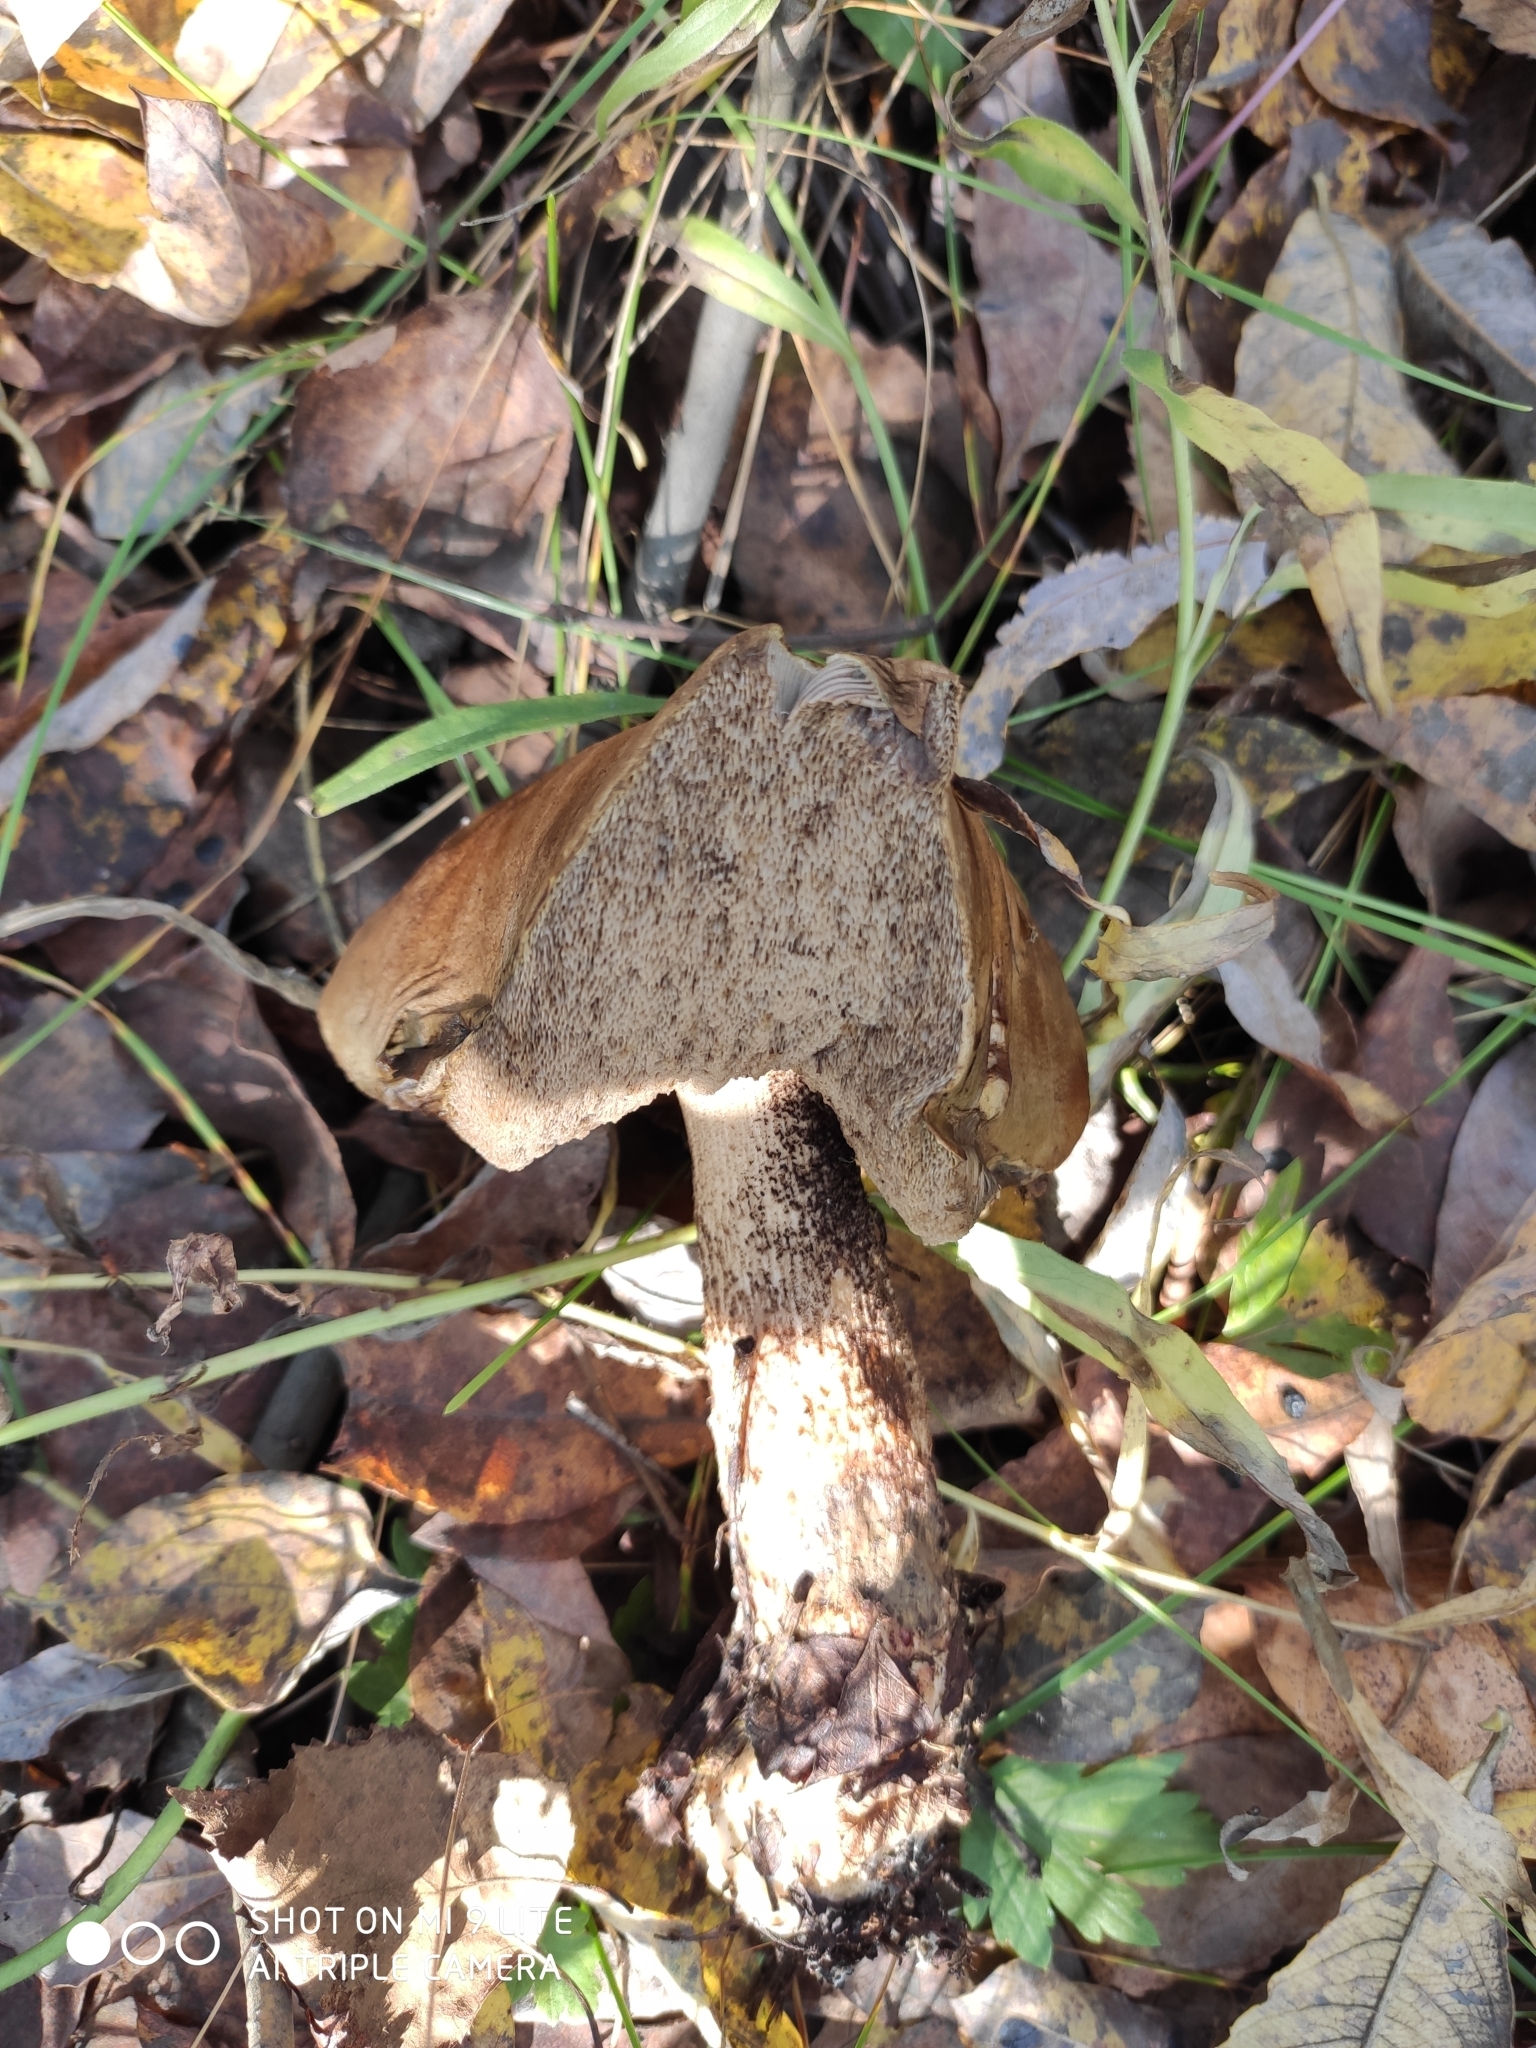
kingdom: Fungi
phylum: Basidiomycota
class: Agaricomycetes
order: Boletales
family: Boletaceae
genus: Leccinum
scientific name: Leccinum scabrum
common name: Blushing bolete
